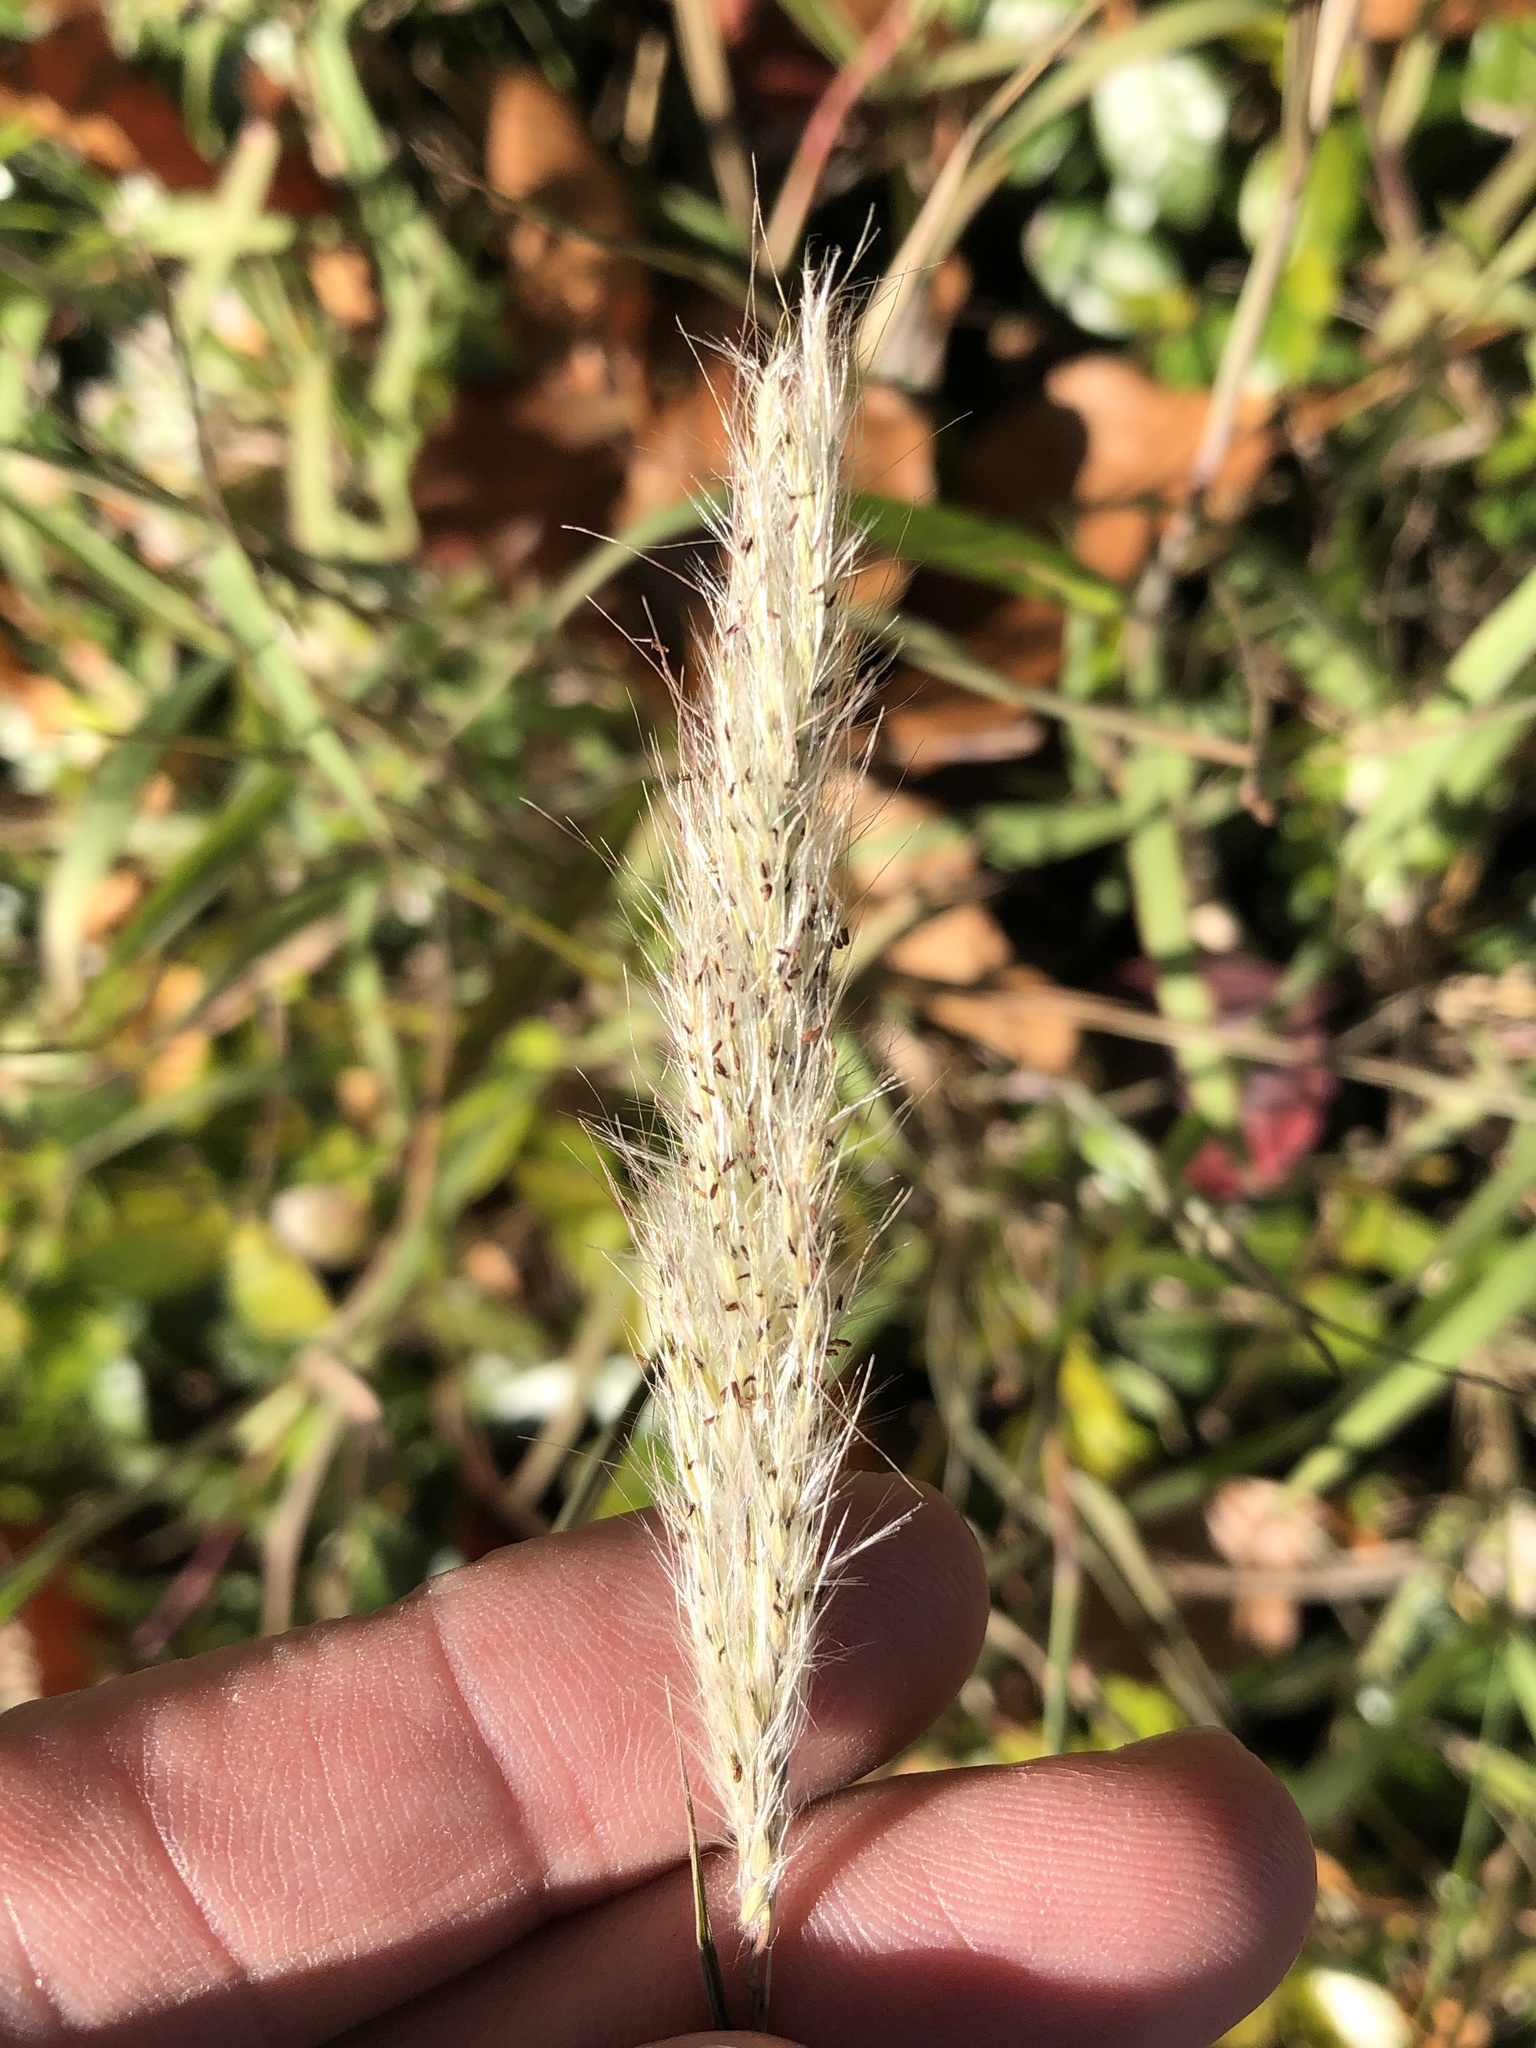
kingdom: Plantae
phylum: Tracheophyta
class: Liliopsida
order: Poales
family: Poaceae
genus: Bothriochloa
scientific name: Bothriochloa torreyana
